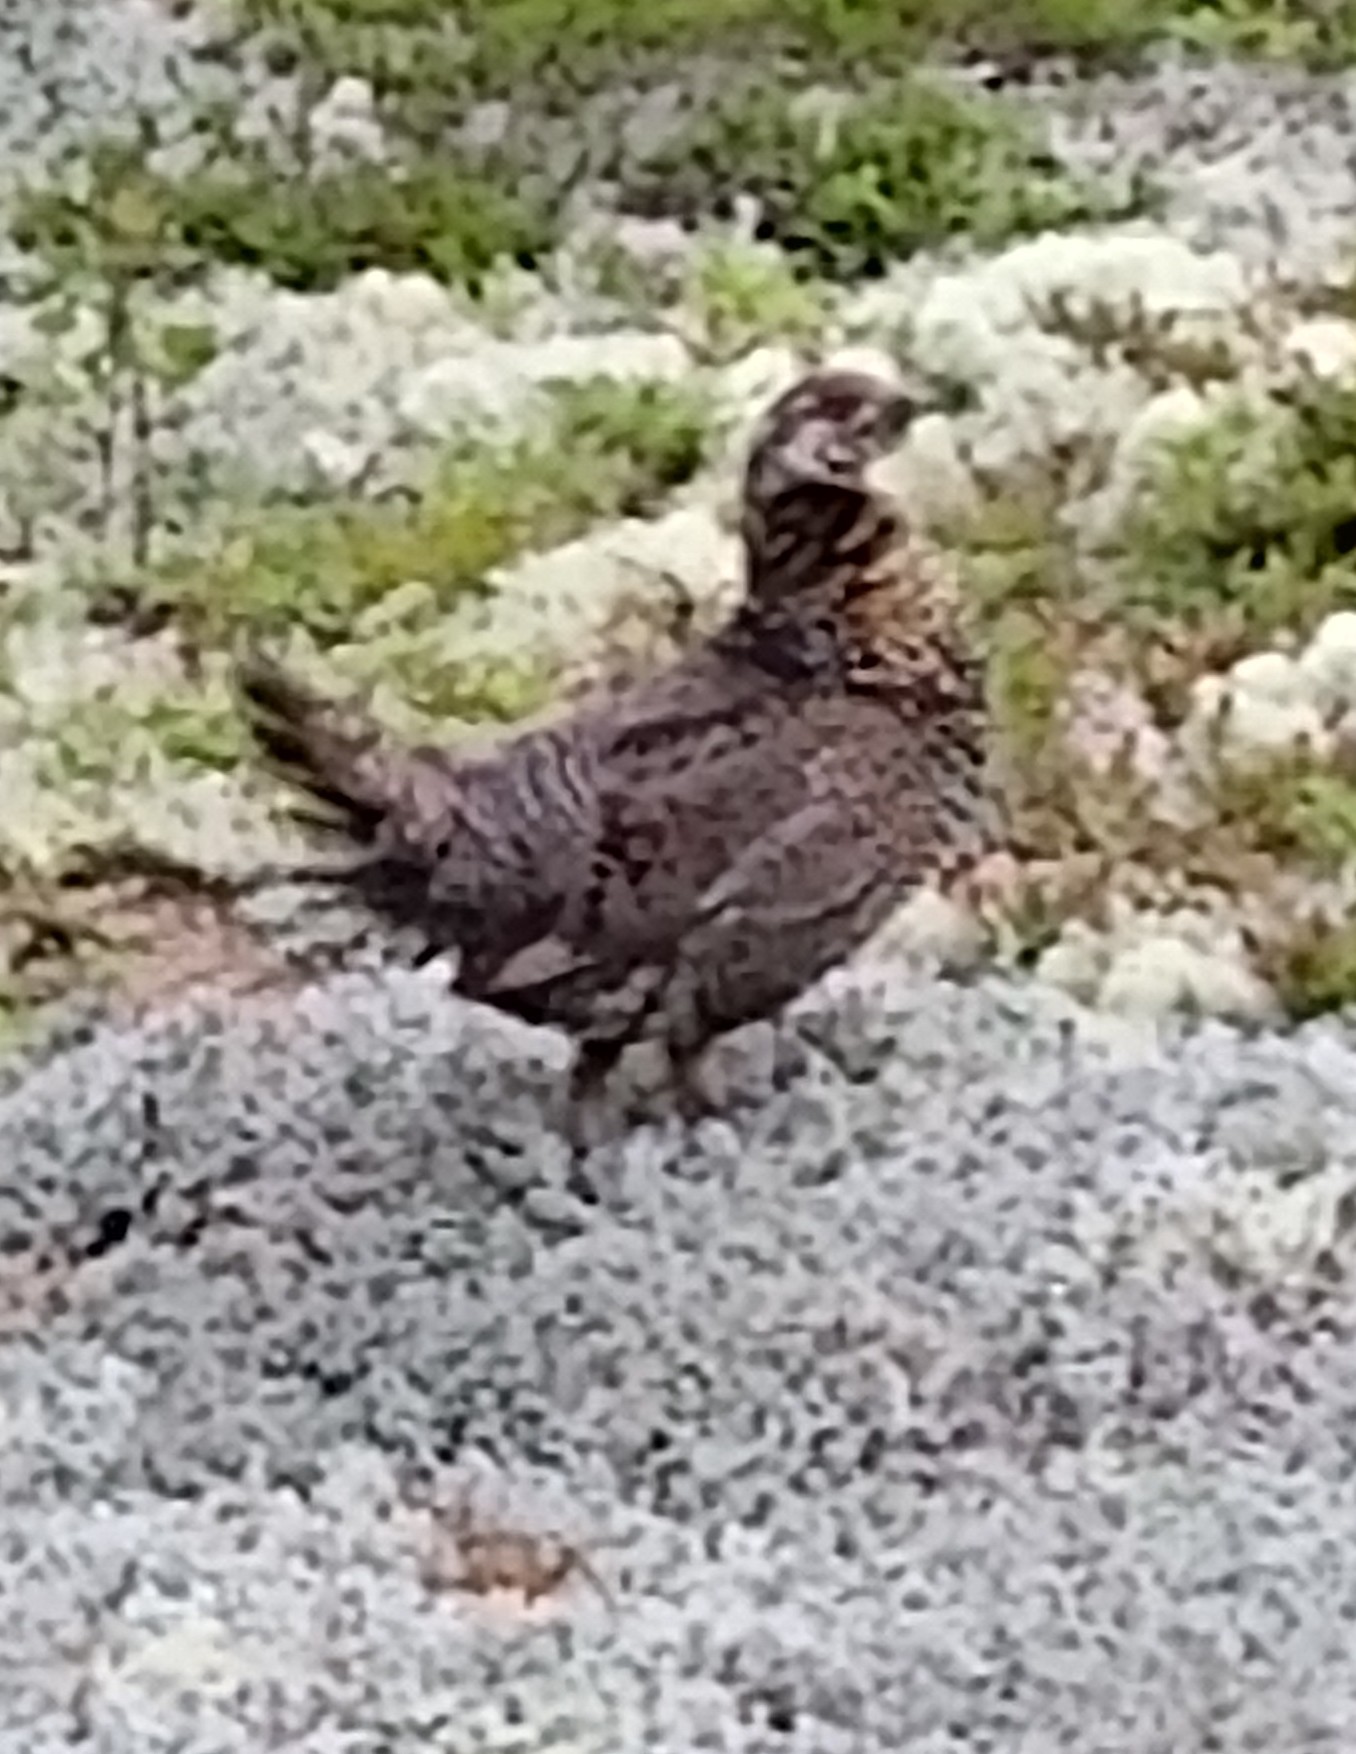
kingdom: Animalia
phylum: Chordata
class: Aves
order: Galliformes
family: Phasianidae
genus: Canachites
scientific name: Canachites canadensis
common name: Spruce grouse
